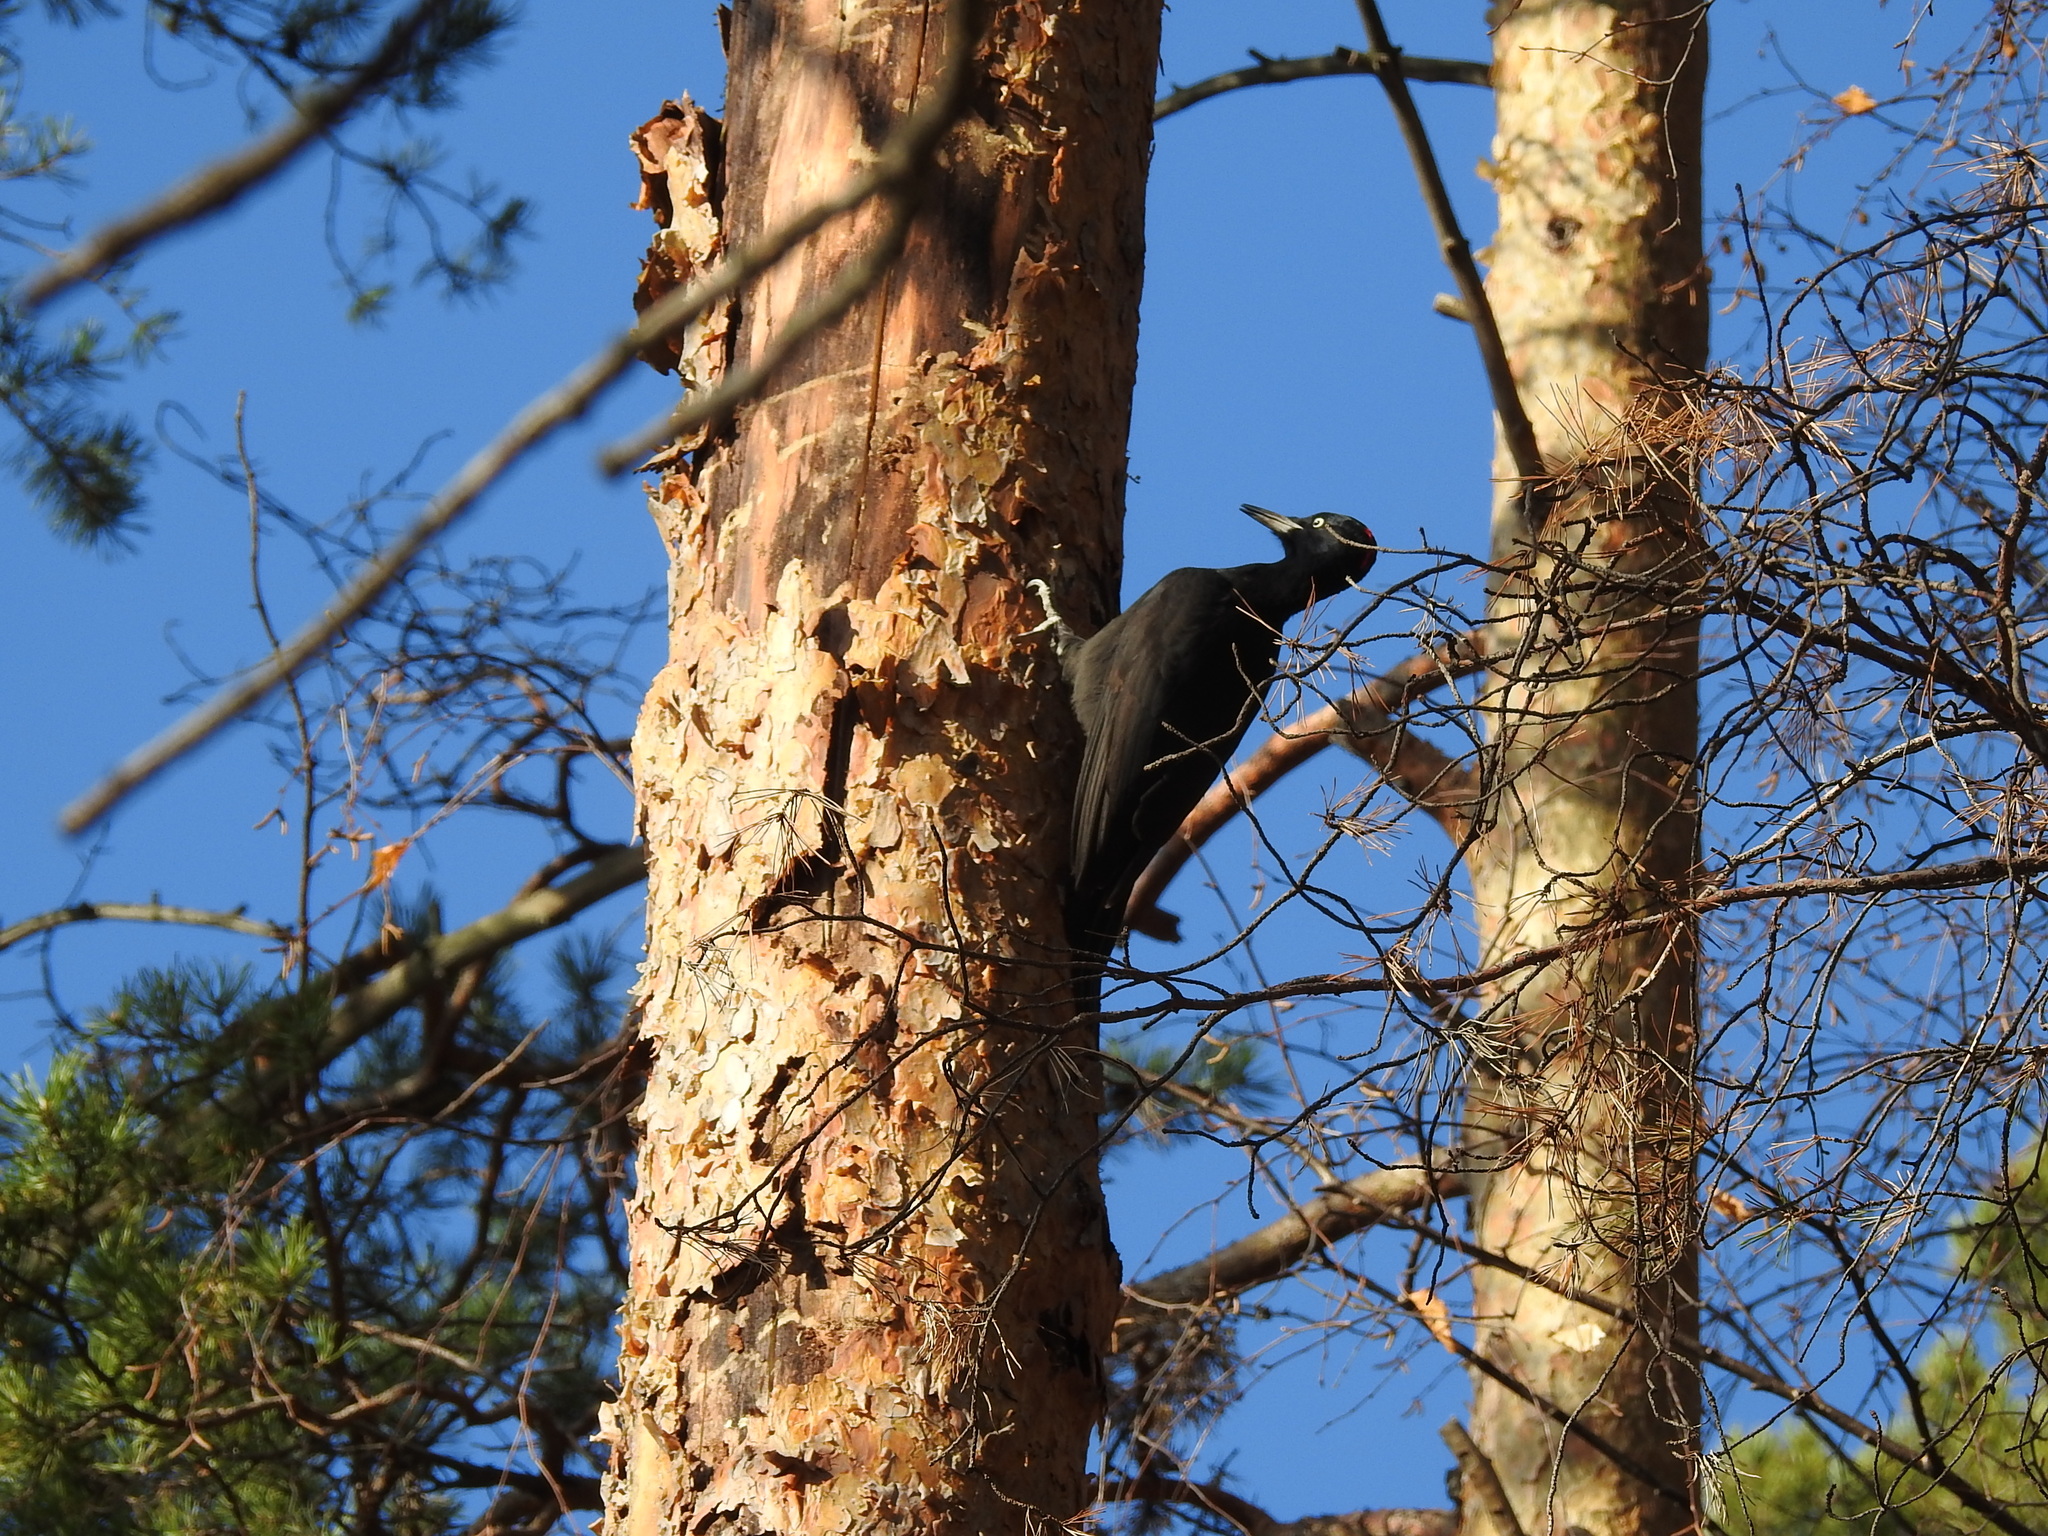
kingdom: Animalia
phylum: Chordata
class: Aves
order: Piciformes
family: Picidae
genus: Dryocopus
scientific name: Dryocopus martius
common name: Black woodpecker
